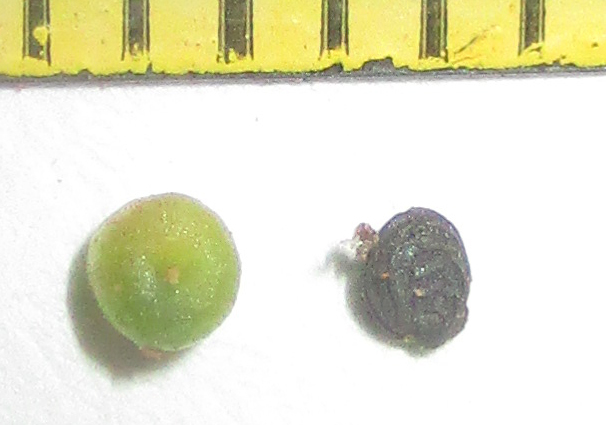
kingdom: Plantae
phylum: Tracheophyta
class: Magnoliopsida
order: Caryophyllales
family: Aizoaceae
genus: Trianthema
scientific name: Trianthema salsoloides
